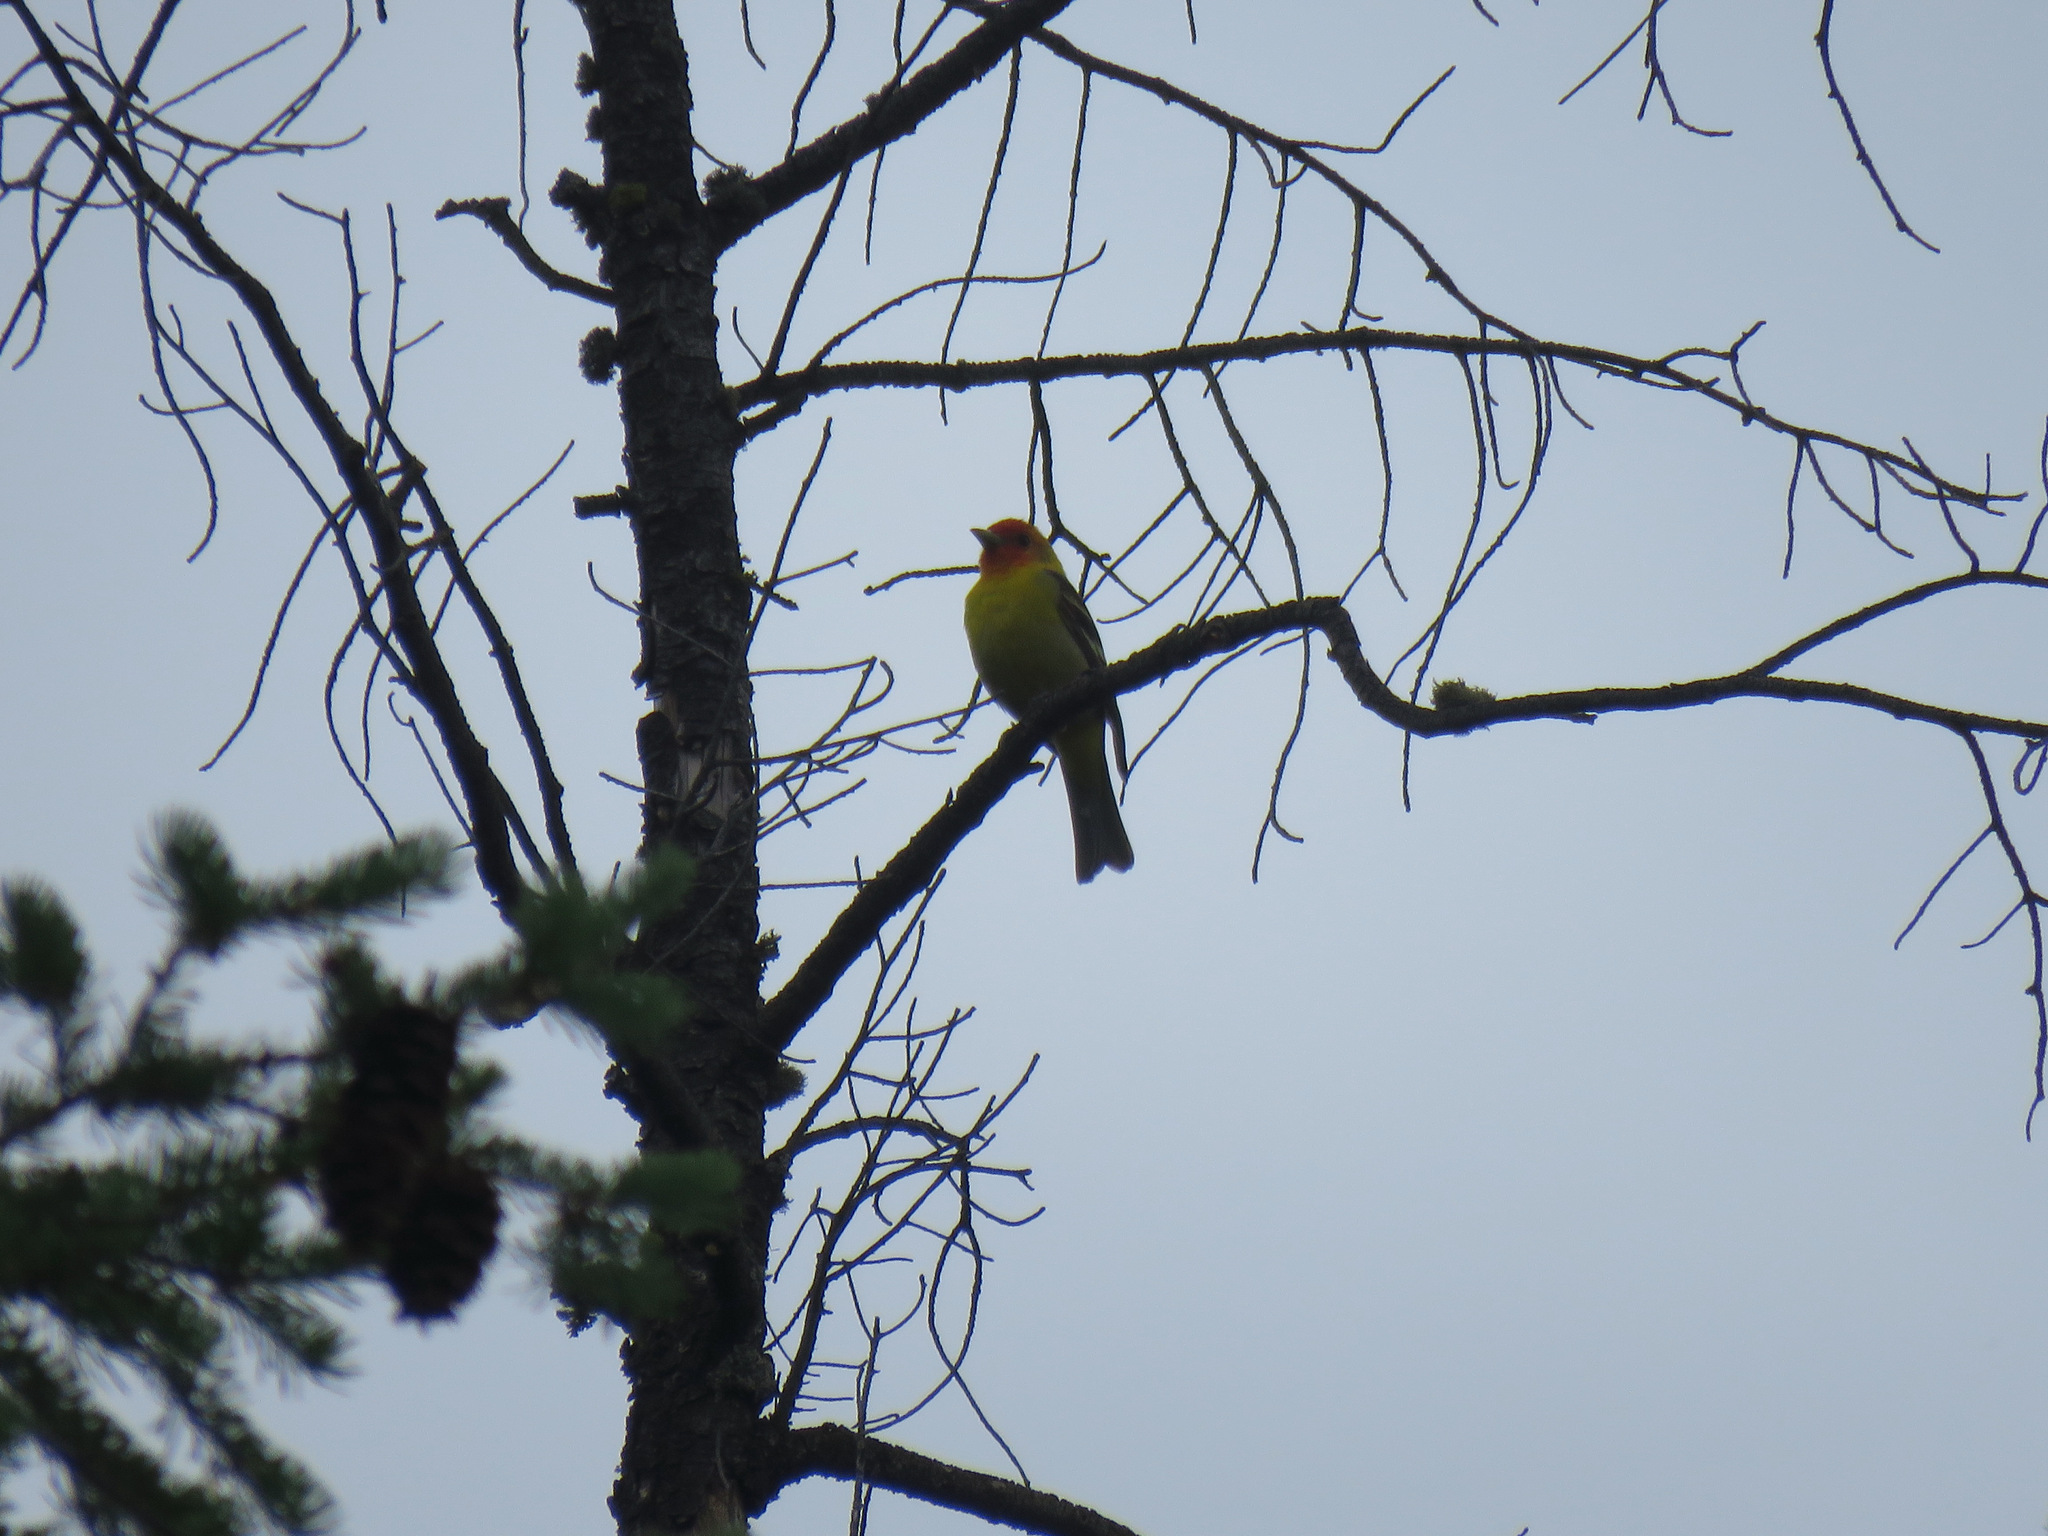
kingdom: Animalia
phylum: Chordata
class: Aves
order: Passeriformes
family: Cardinalidae
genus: Piranga
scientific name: Piranga ludoviciana
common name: Western tanager
